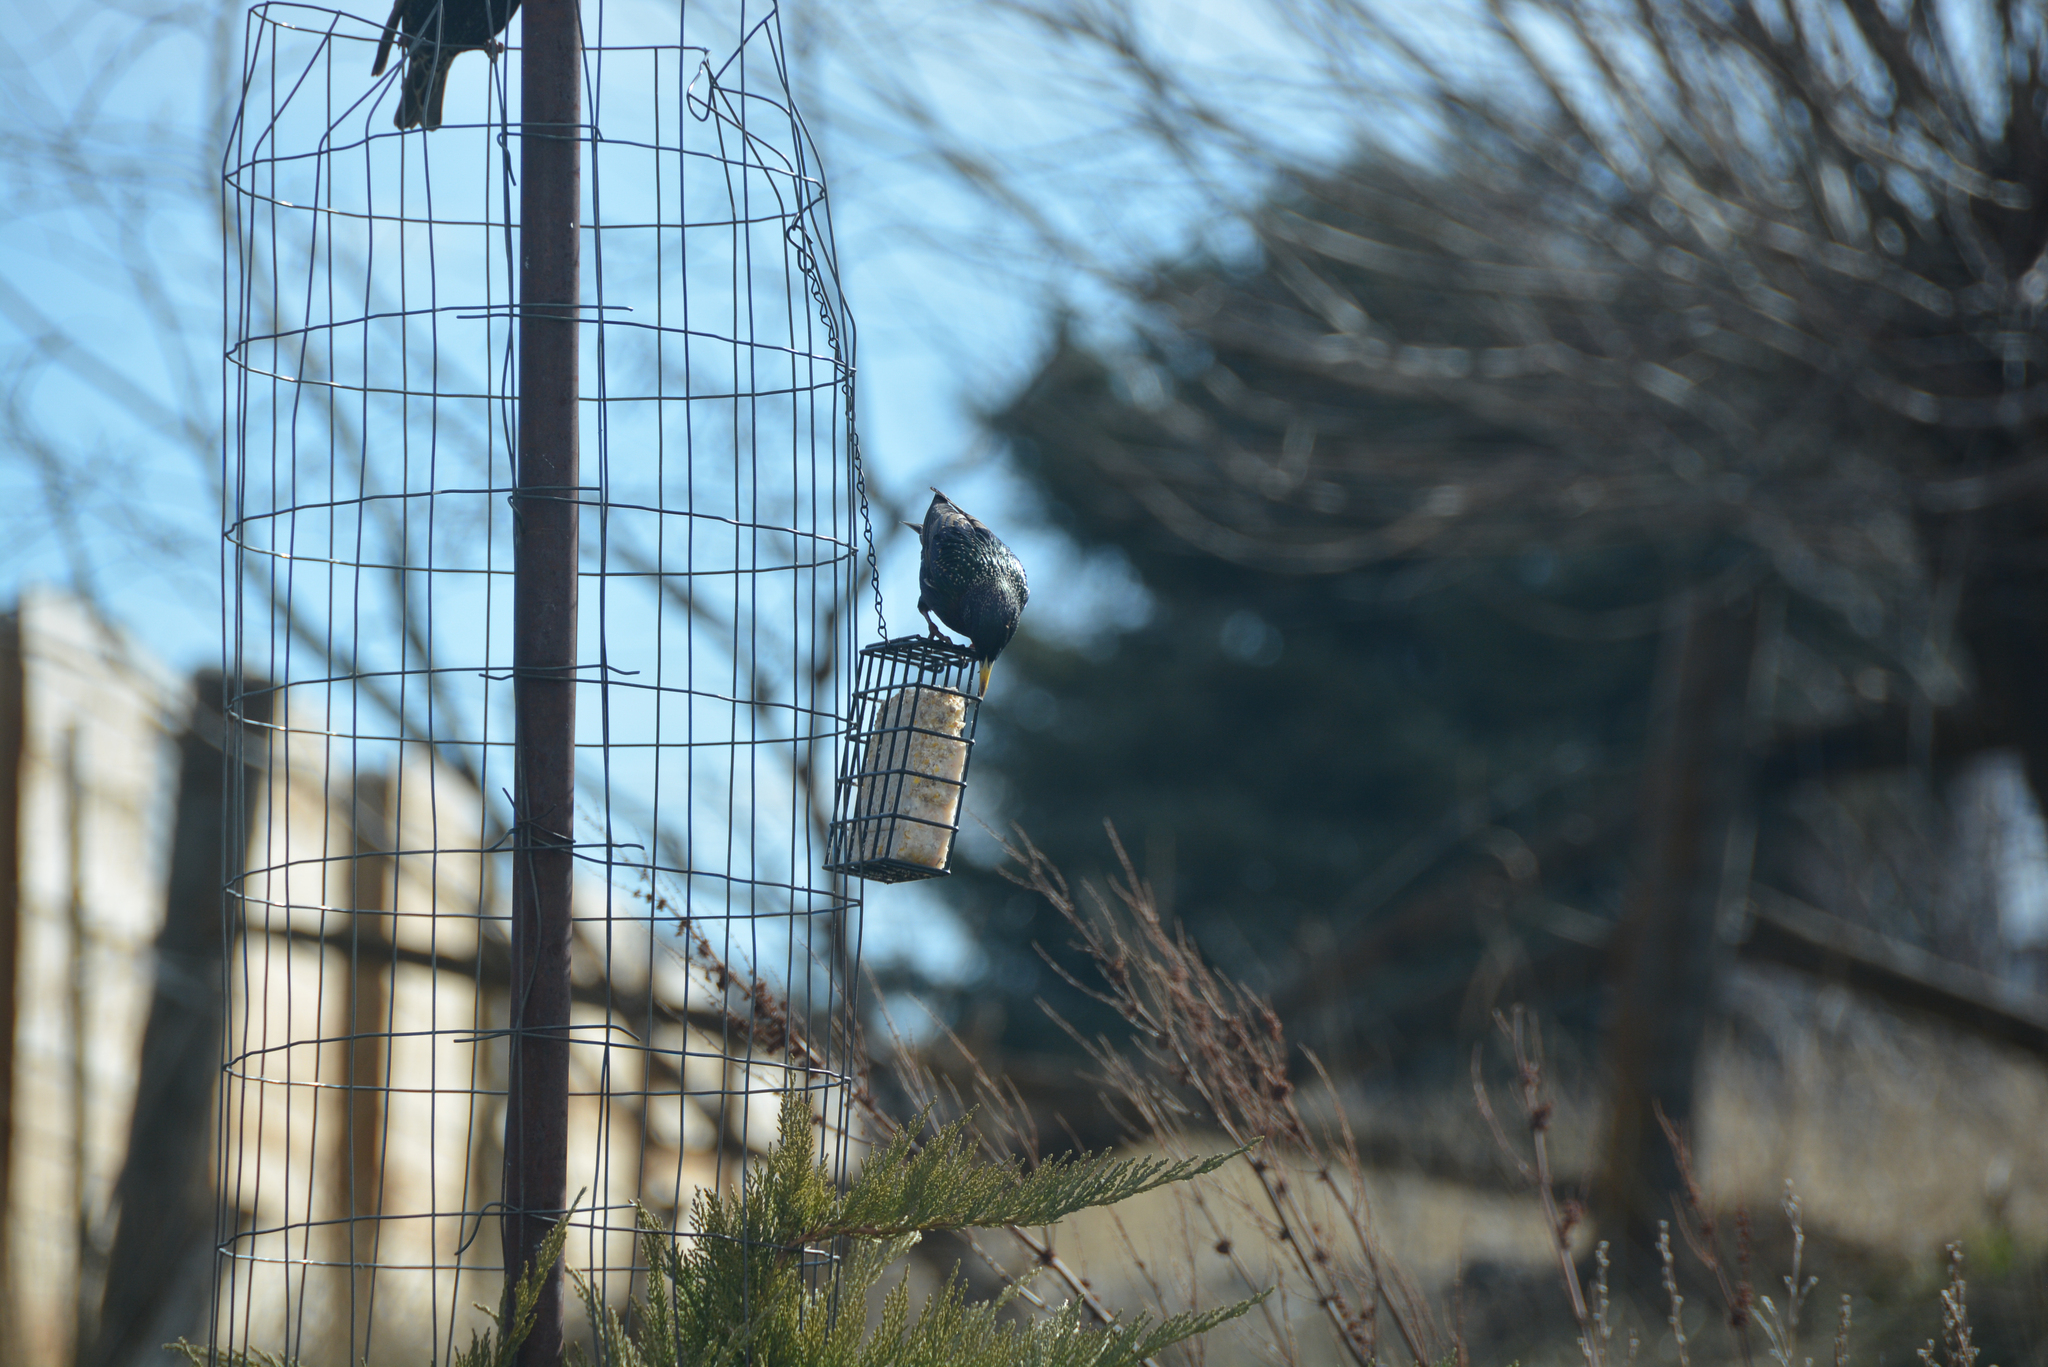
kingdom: Animalia
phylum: Chordata
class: Aves
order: Passeriformes
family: Sturnidae
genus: Sturnus
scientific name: Sturnus vulgaris
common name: Common starling
